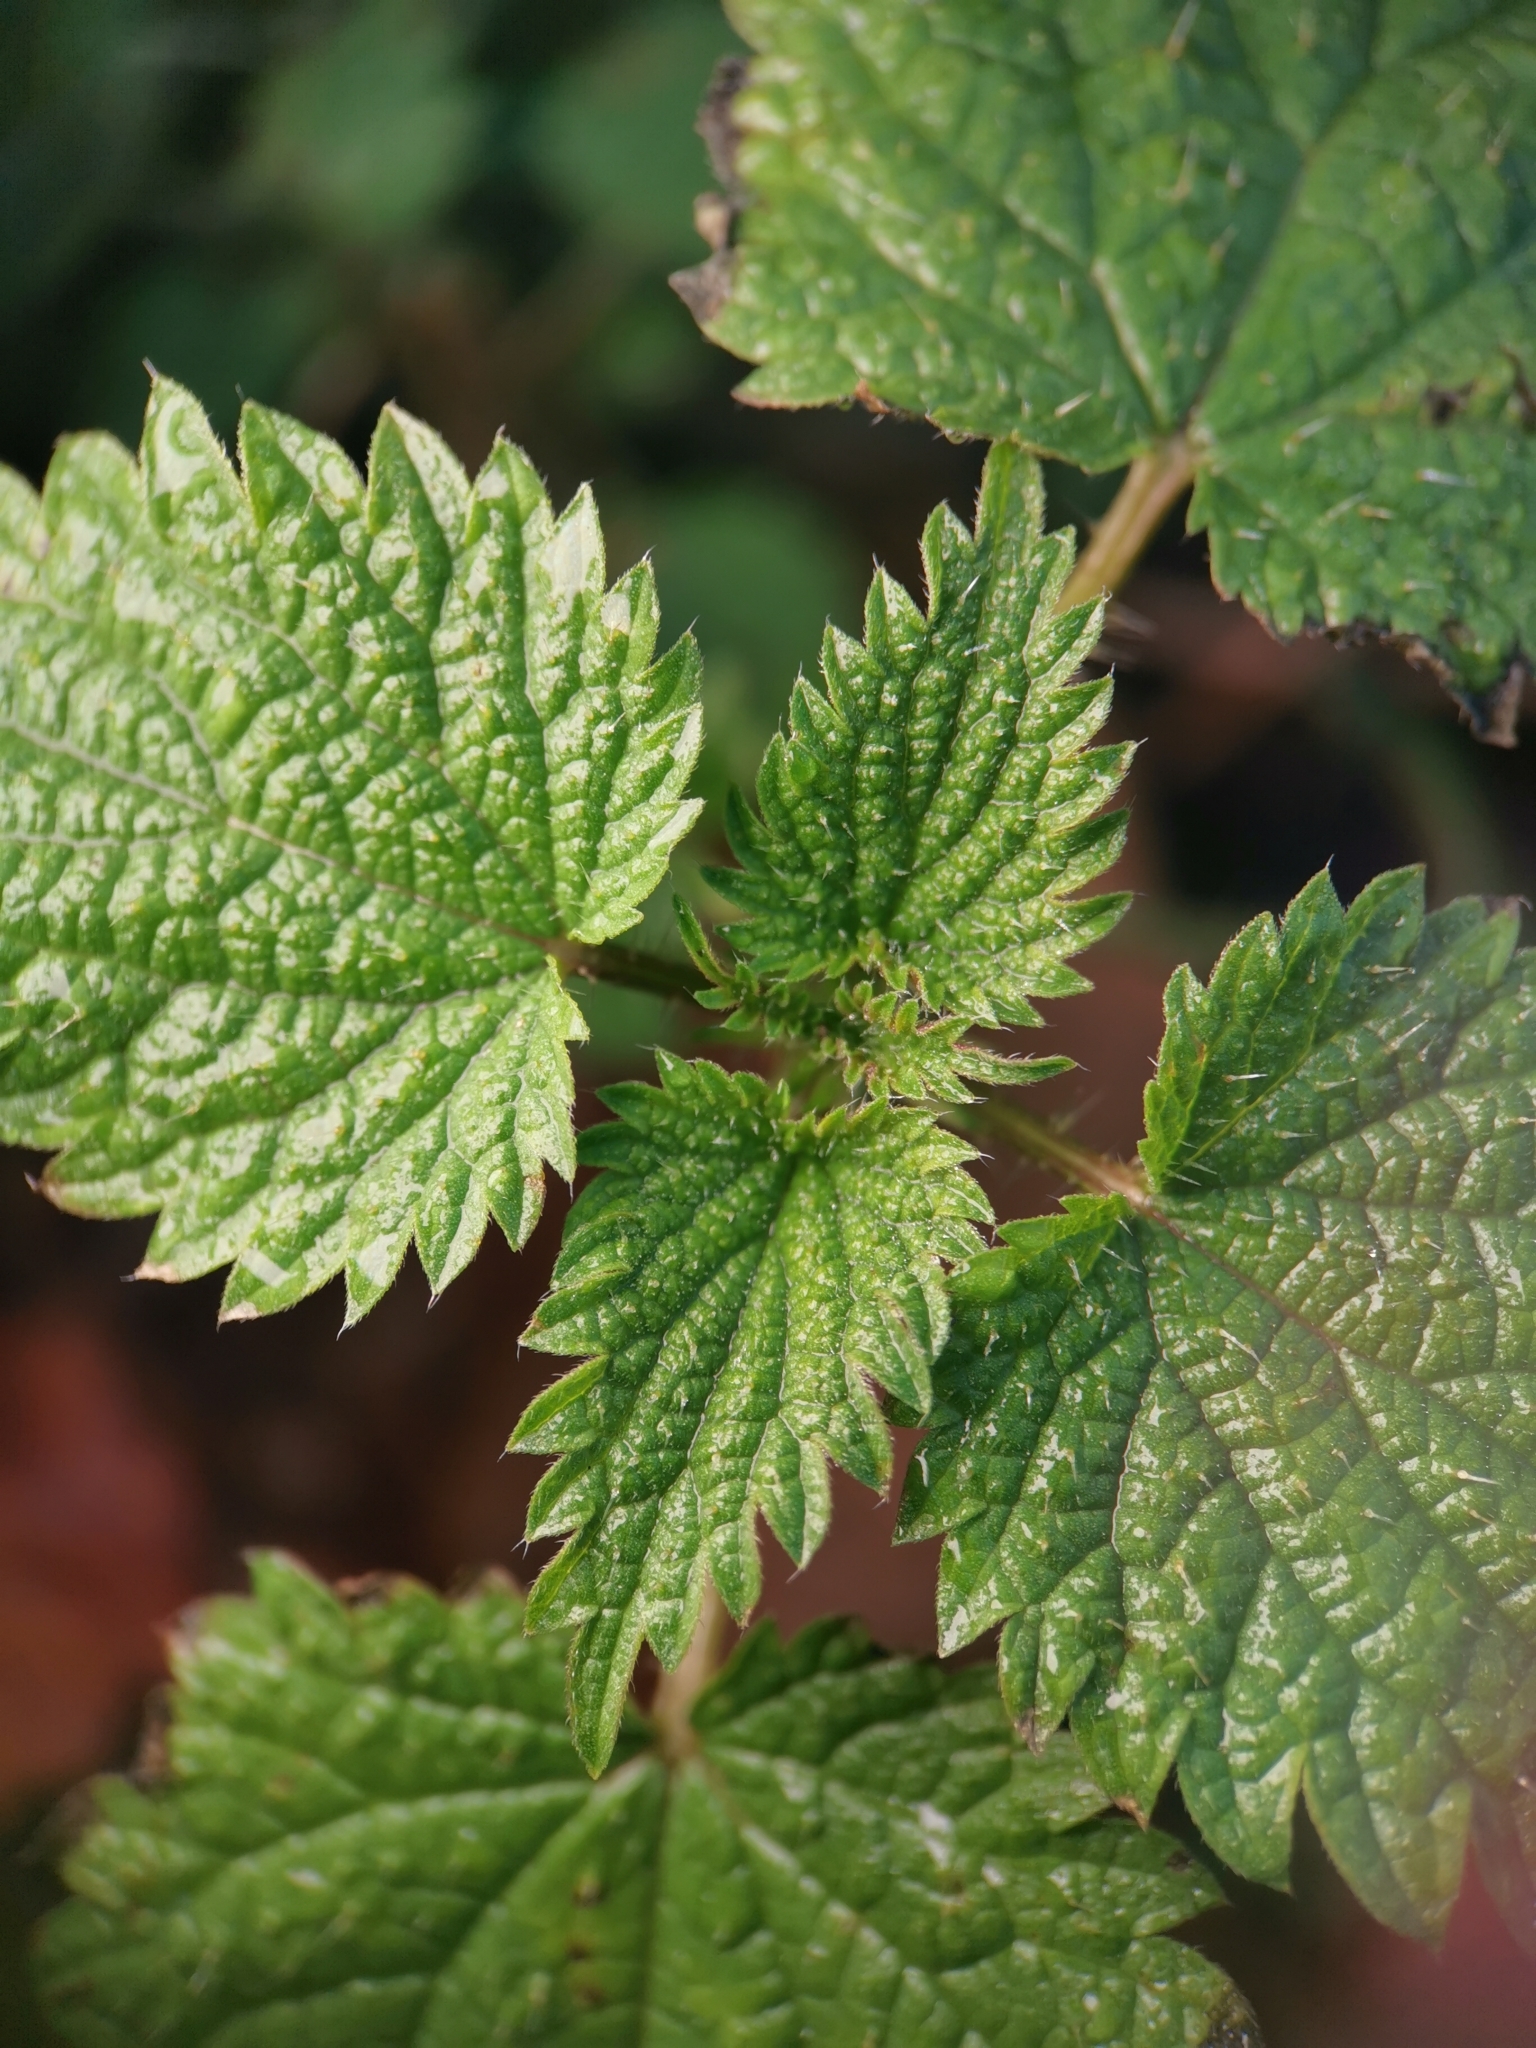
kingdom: Plantae
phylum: Tracheophyta
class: Magnoliopsida
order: Rosales
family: Urticaceae
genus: Urtica
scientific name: Urtica dioica
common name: Common nettle
